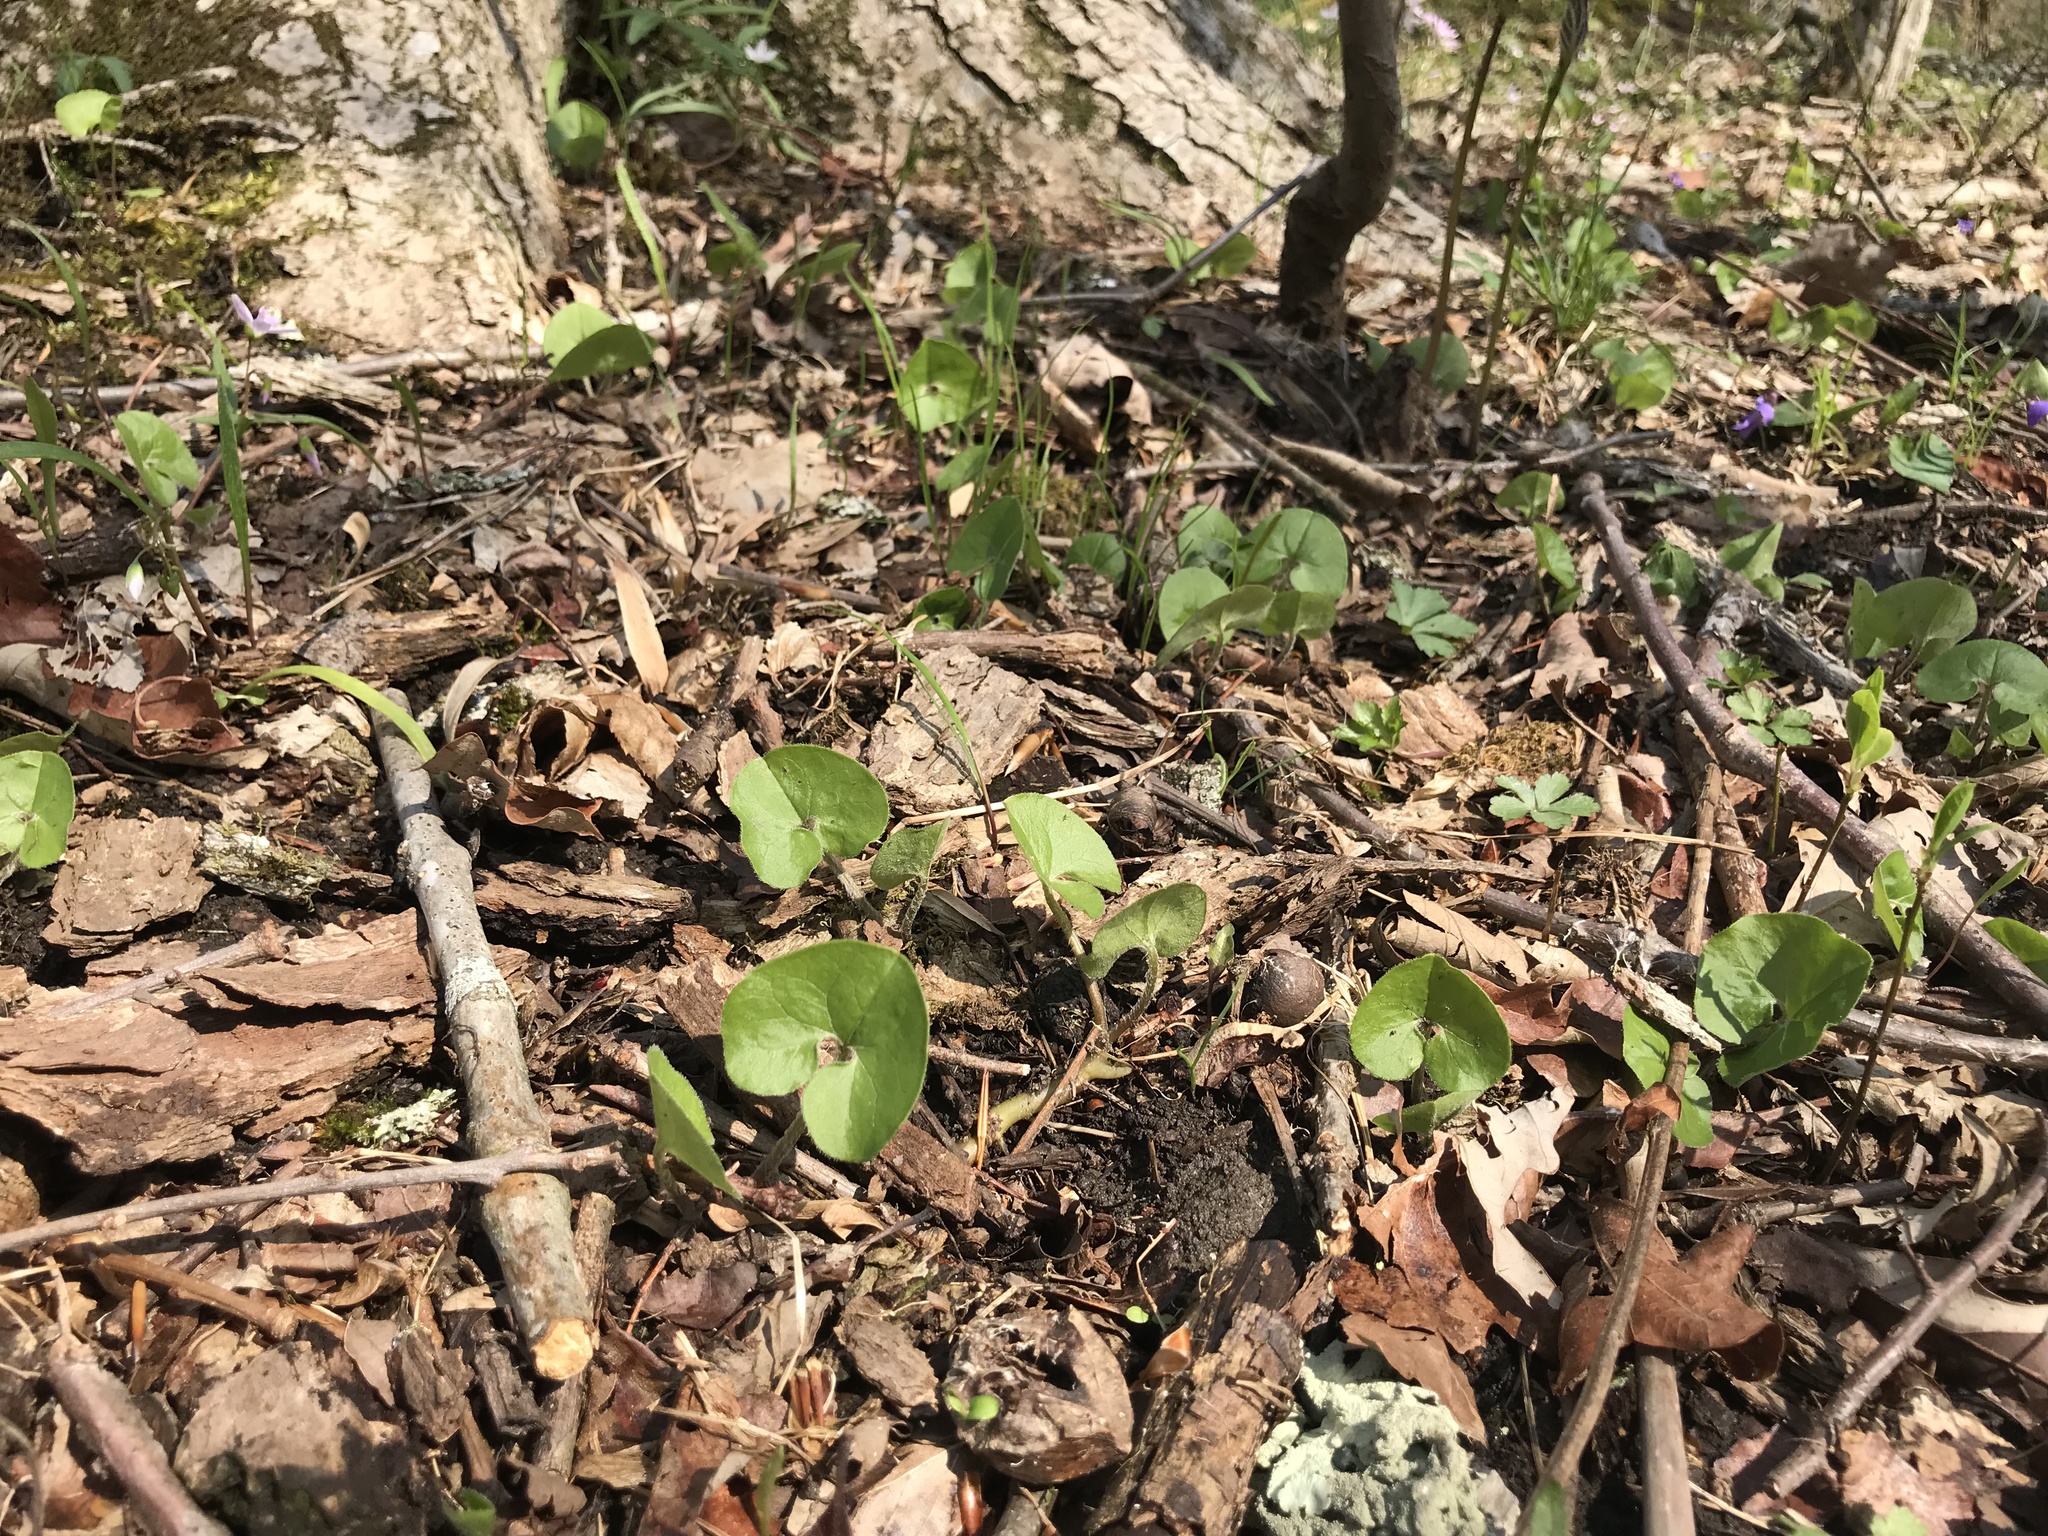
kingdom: Plantae
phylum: Tracheophyta
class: Magnoliopsida
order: Piperales
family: Aristolochiaceae
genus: Asarum
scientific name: Asarum canadense
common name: Wild ginger
